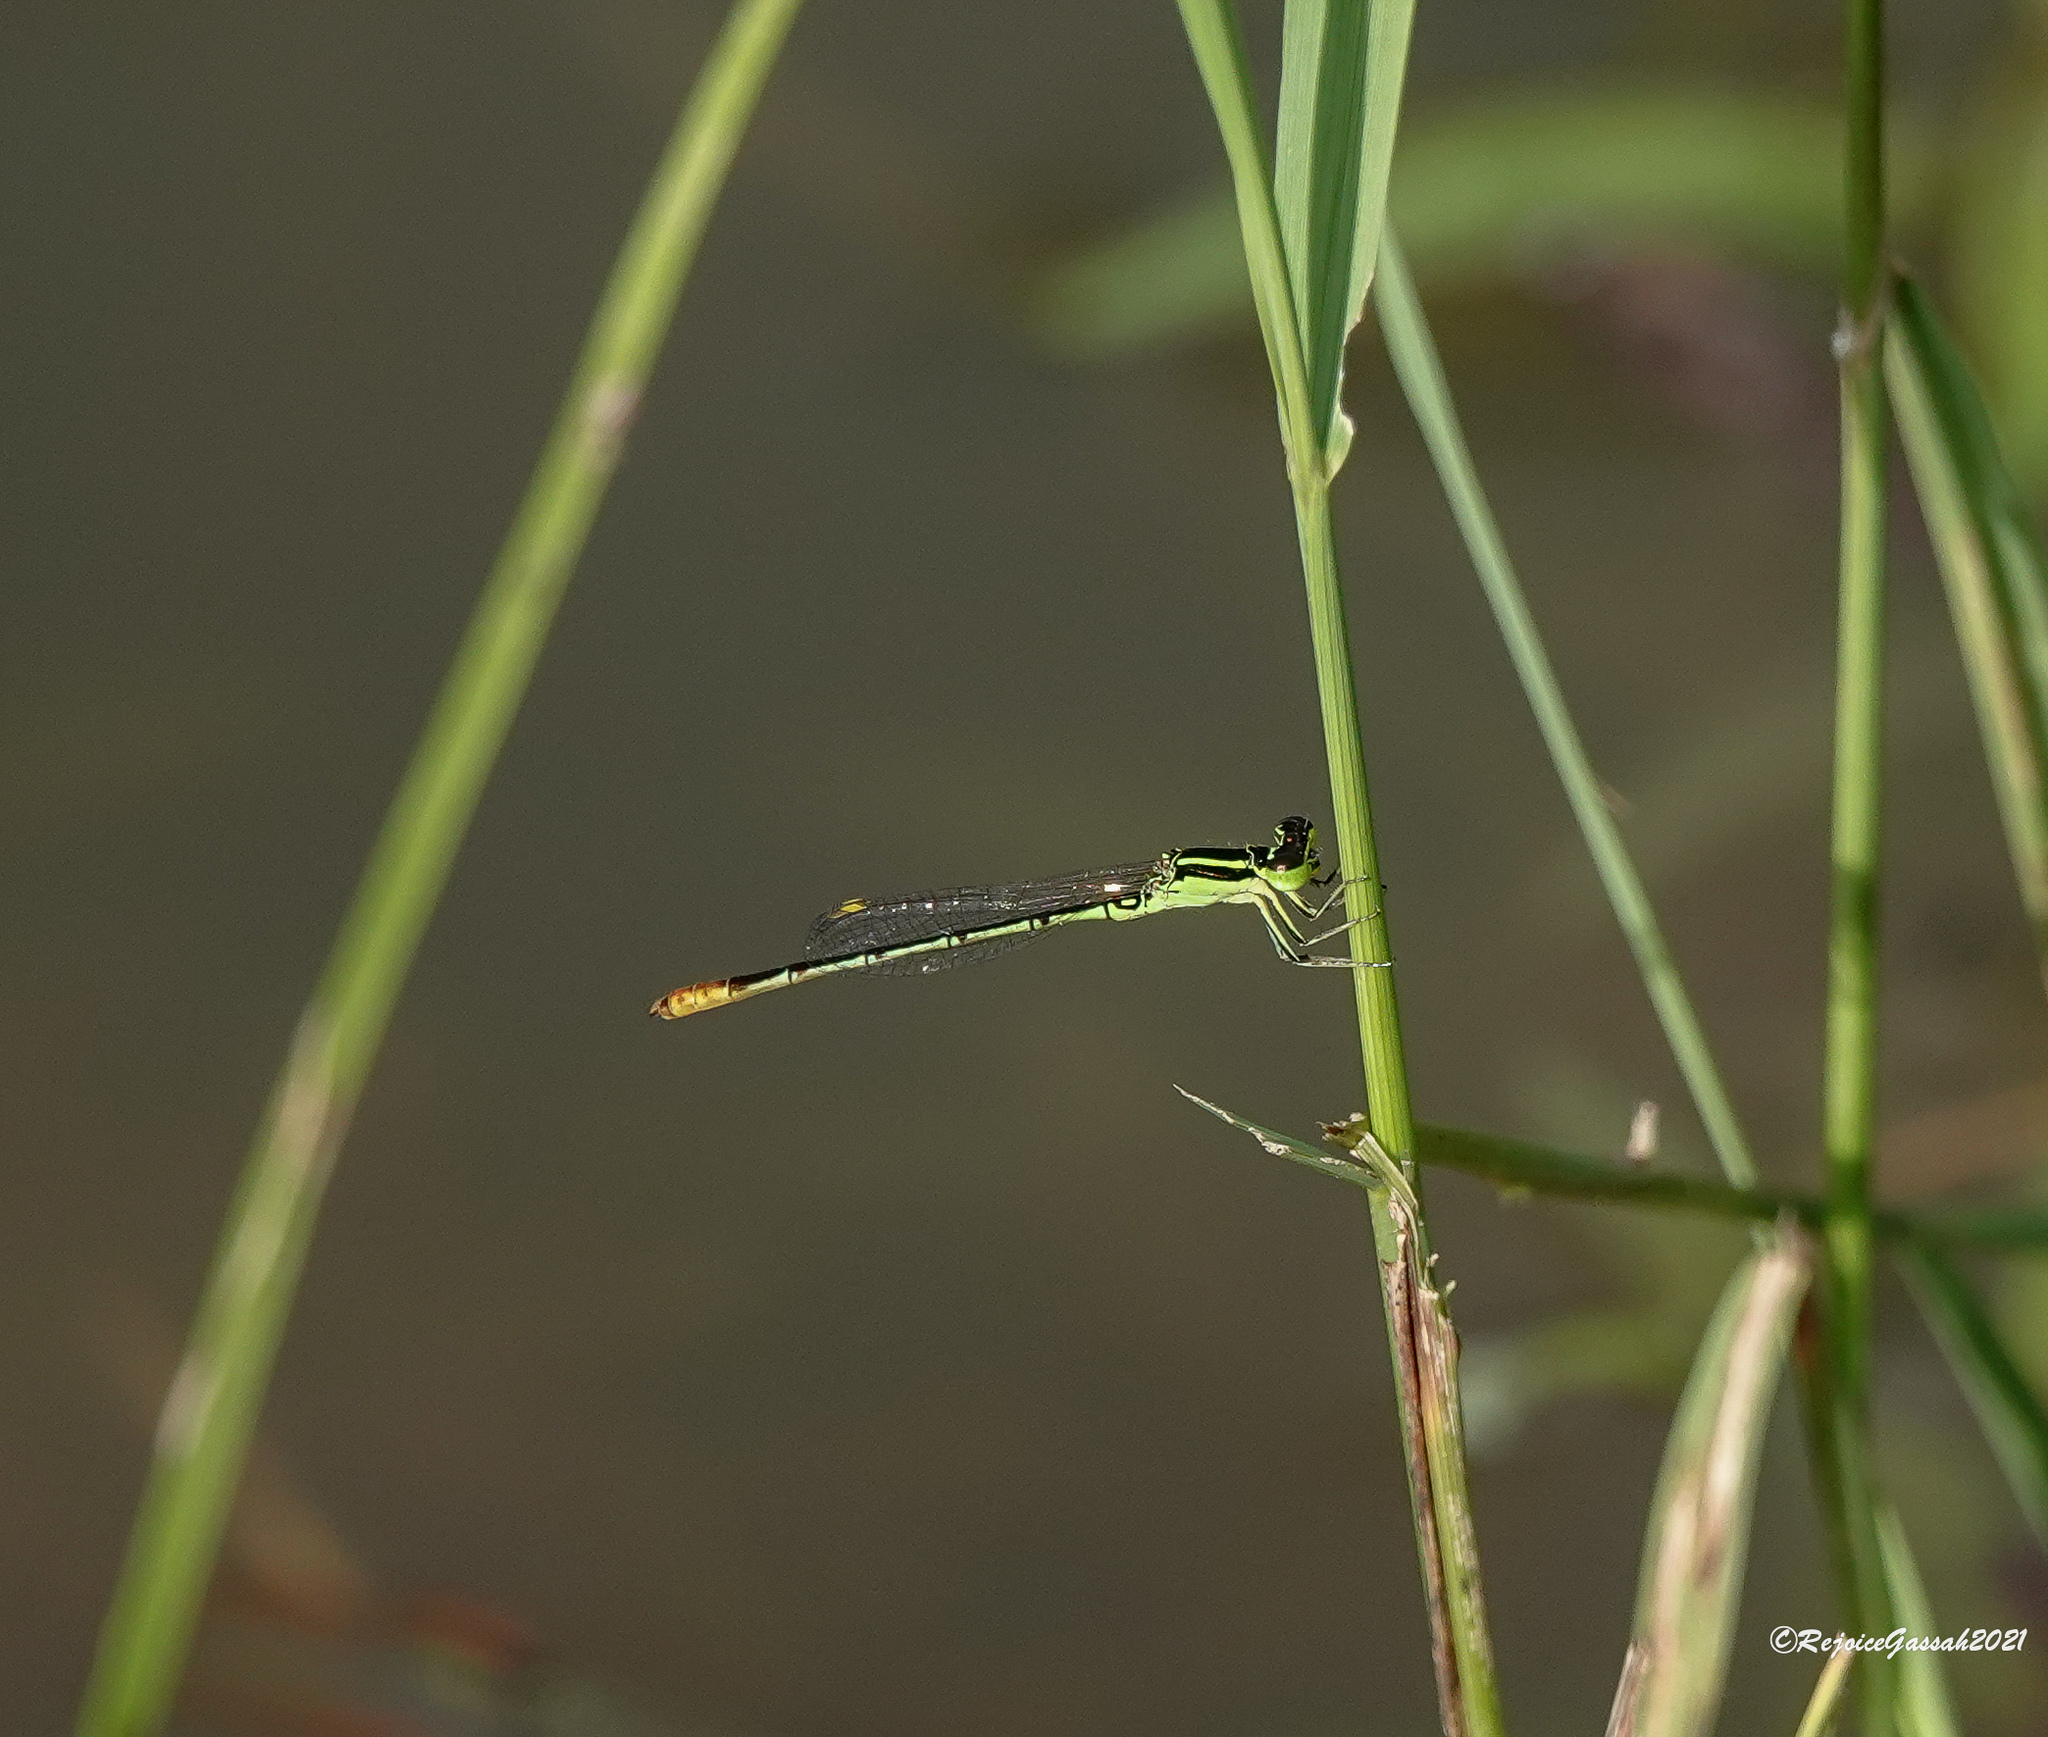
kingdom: Animalia
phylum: Arthropoda
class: Insecta
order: Odonata
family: Coenagrionidae
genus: Agriocnemis
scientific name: Agriocnemis kalinga
